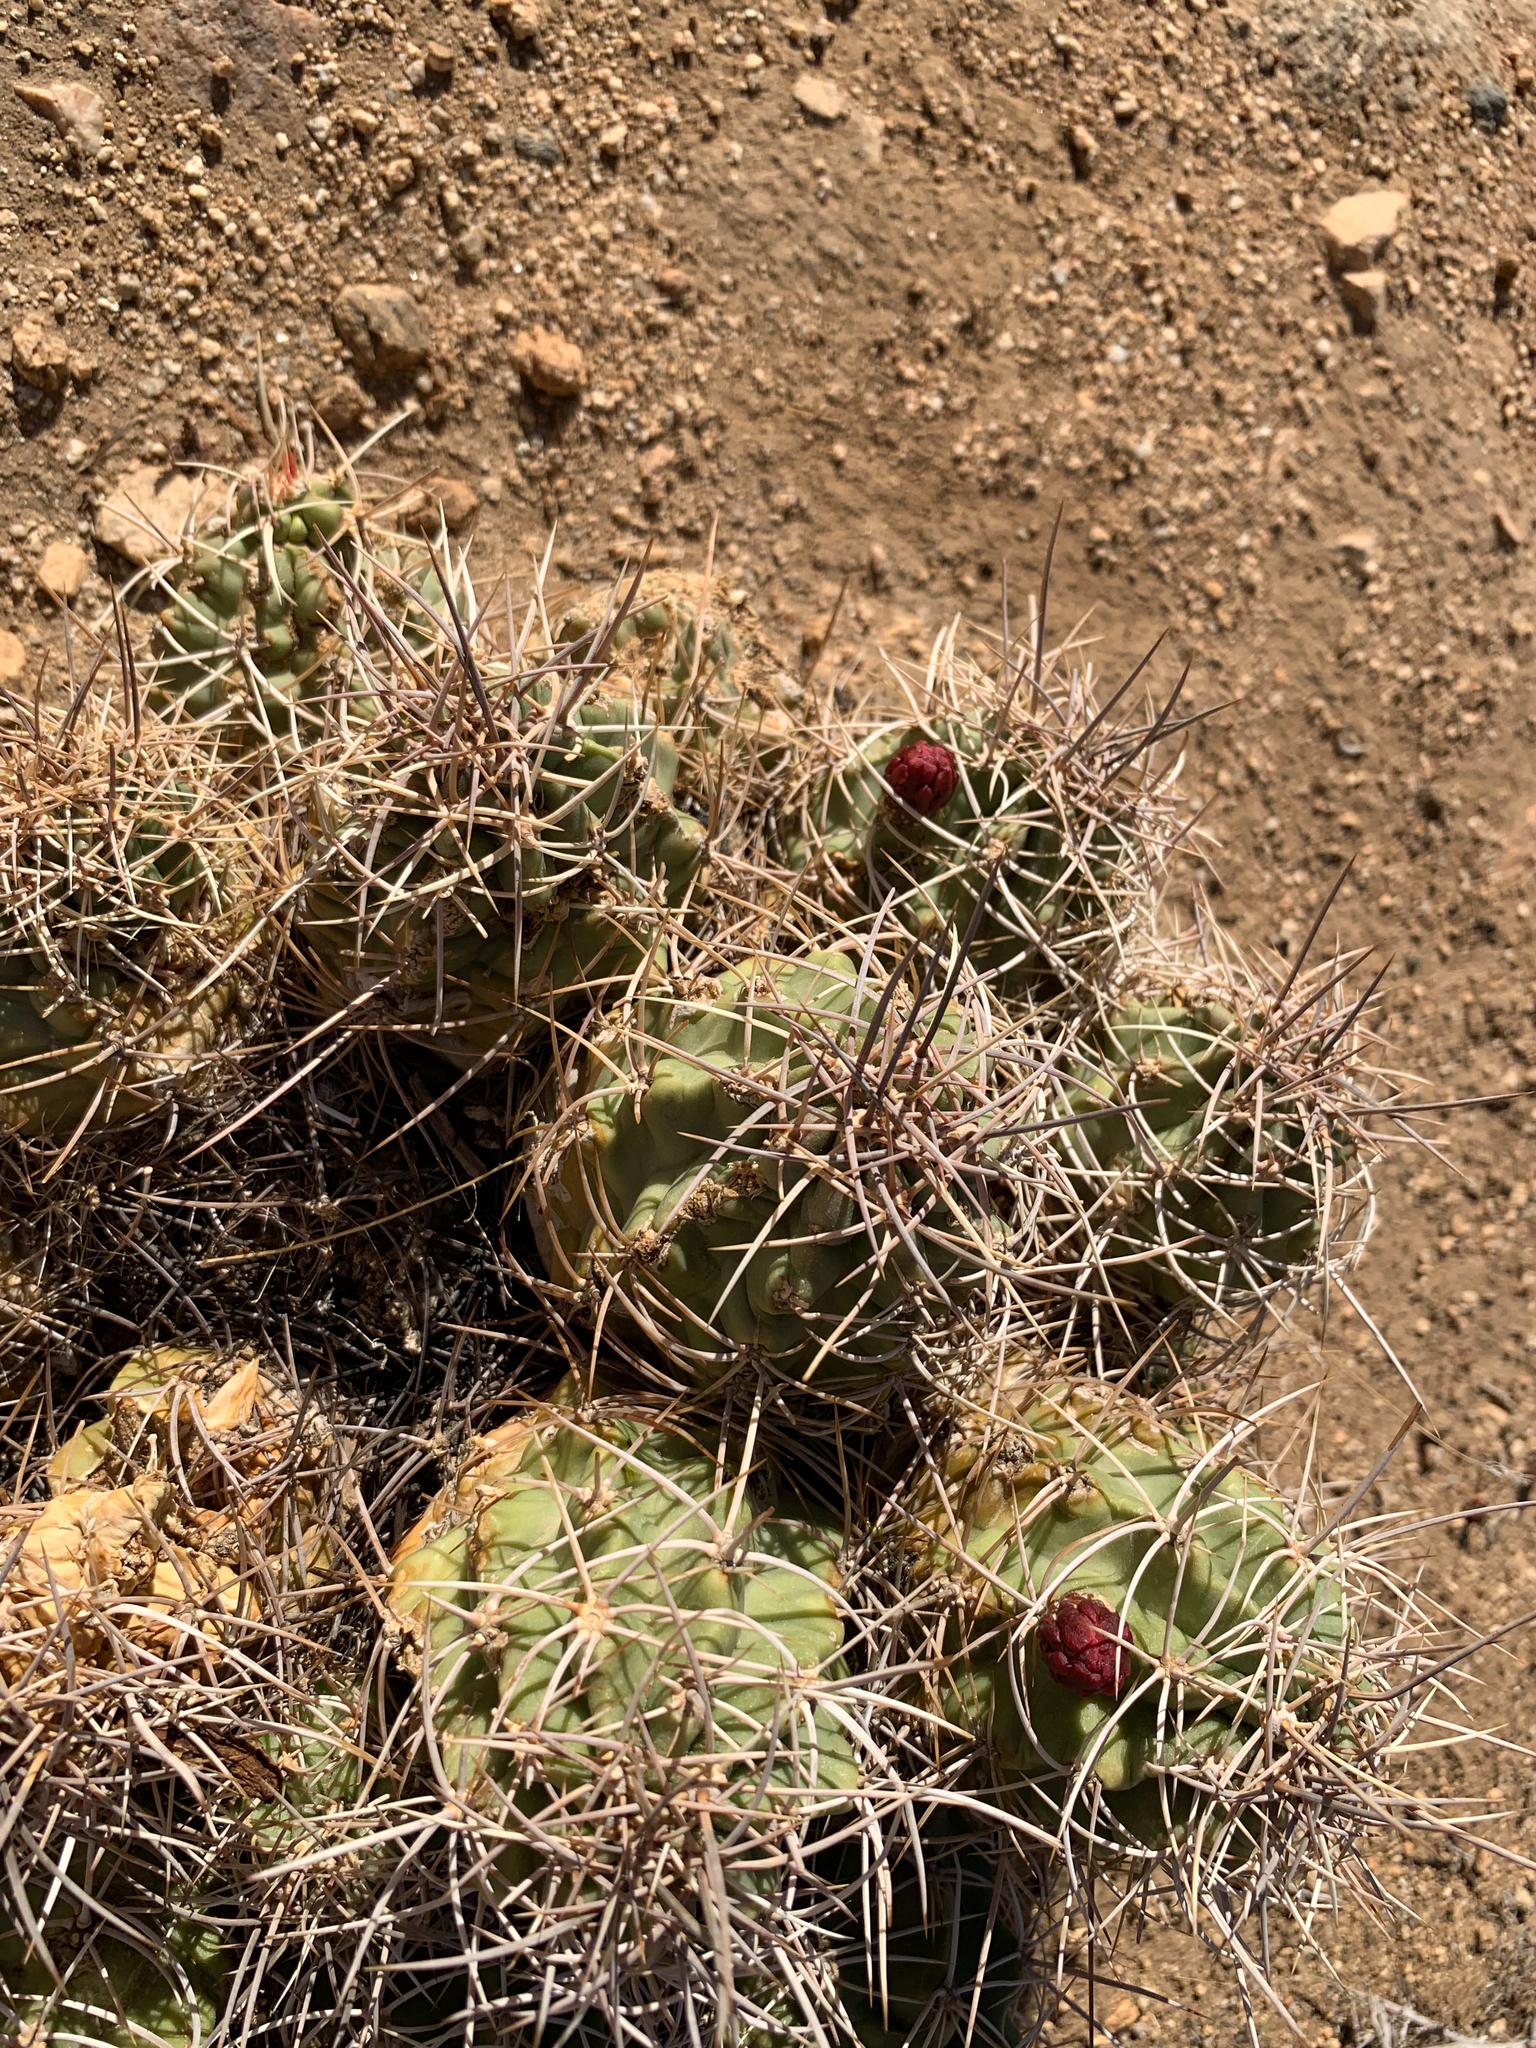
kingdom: Plantae
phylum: Tracheophyta
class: Magnoliopsida
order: Caryophyllales
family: Cactaceae
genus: Echinocereus
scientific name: Echinocereus triglochidiatus
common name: Claretcup hedgehog
